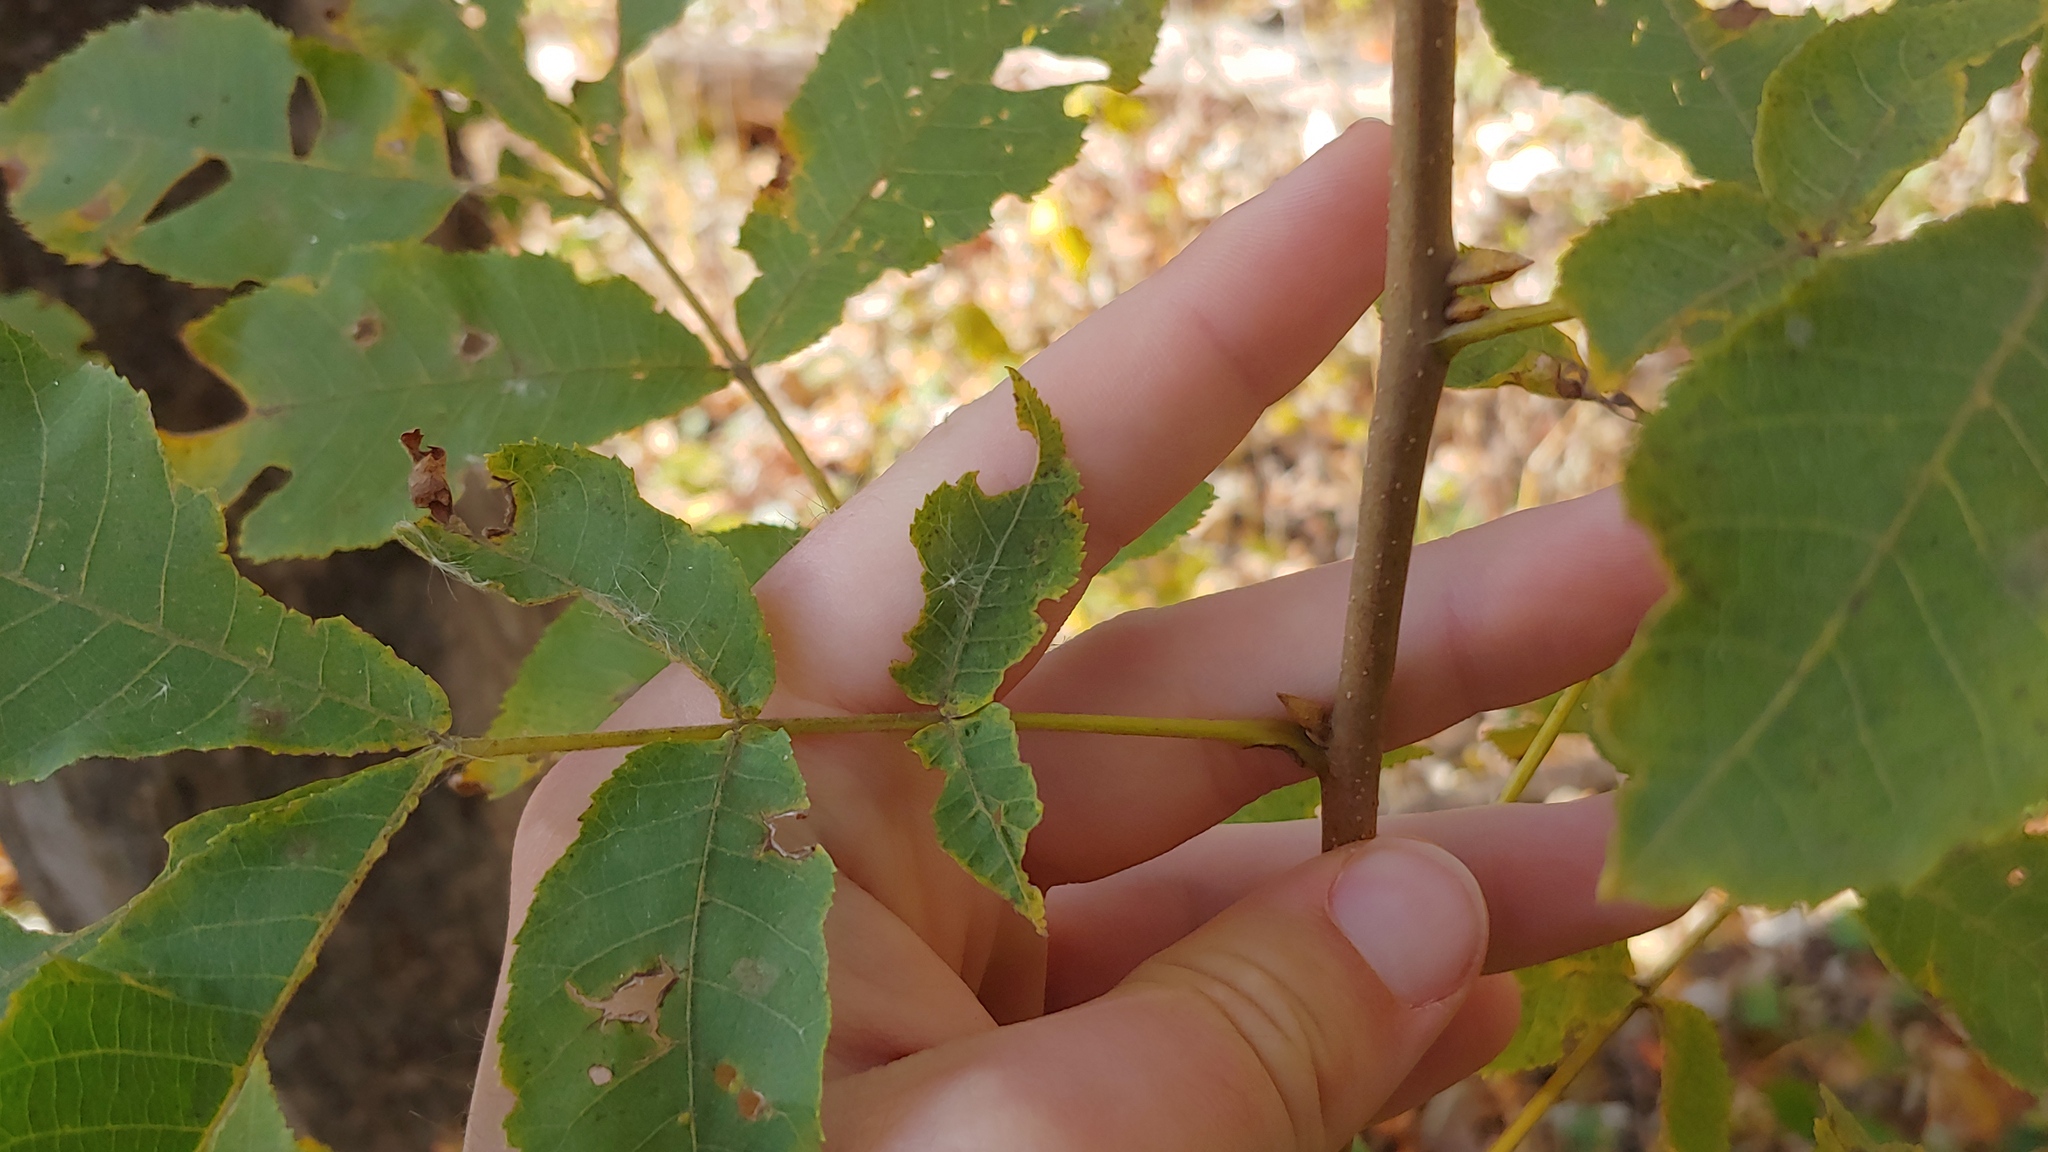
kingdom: Plantae
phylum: Tracheophyta
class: Magnoliopsida
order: Fagales
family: Juglandaceae
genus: Carya
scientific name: Carya cordiformis
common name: Bitternut hickory
